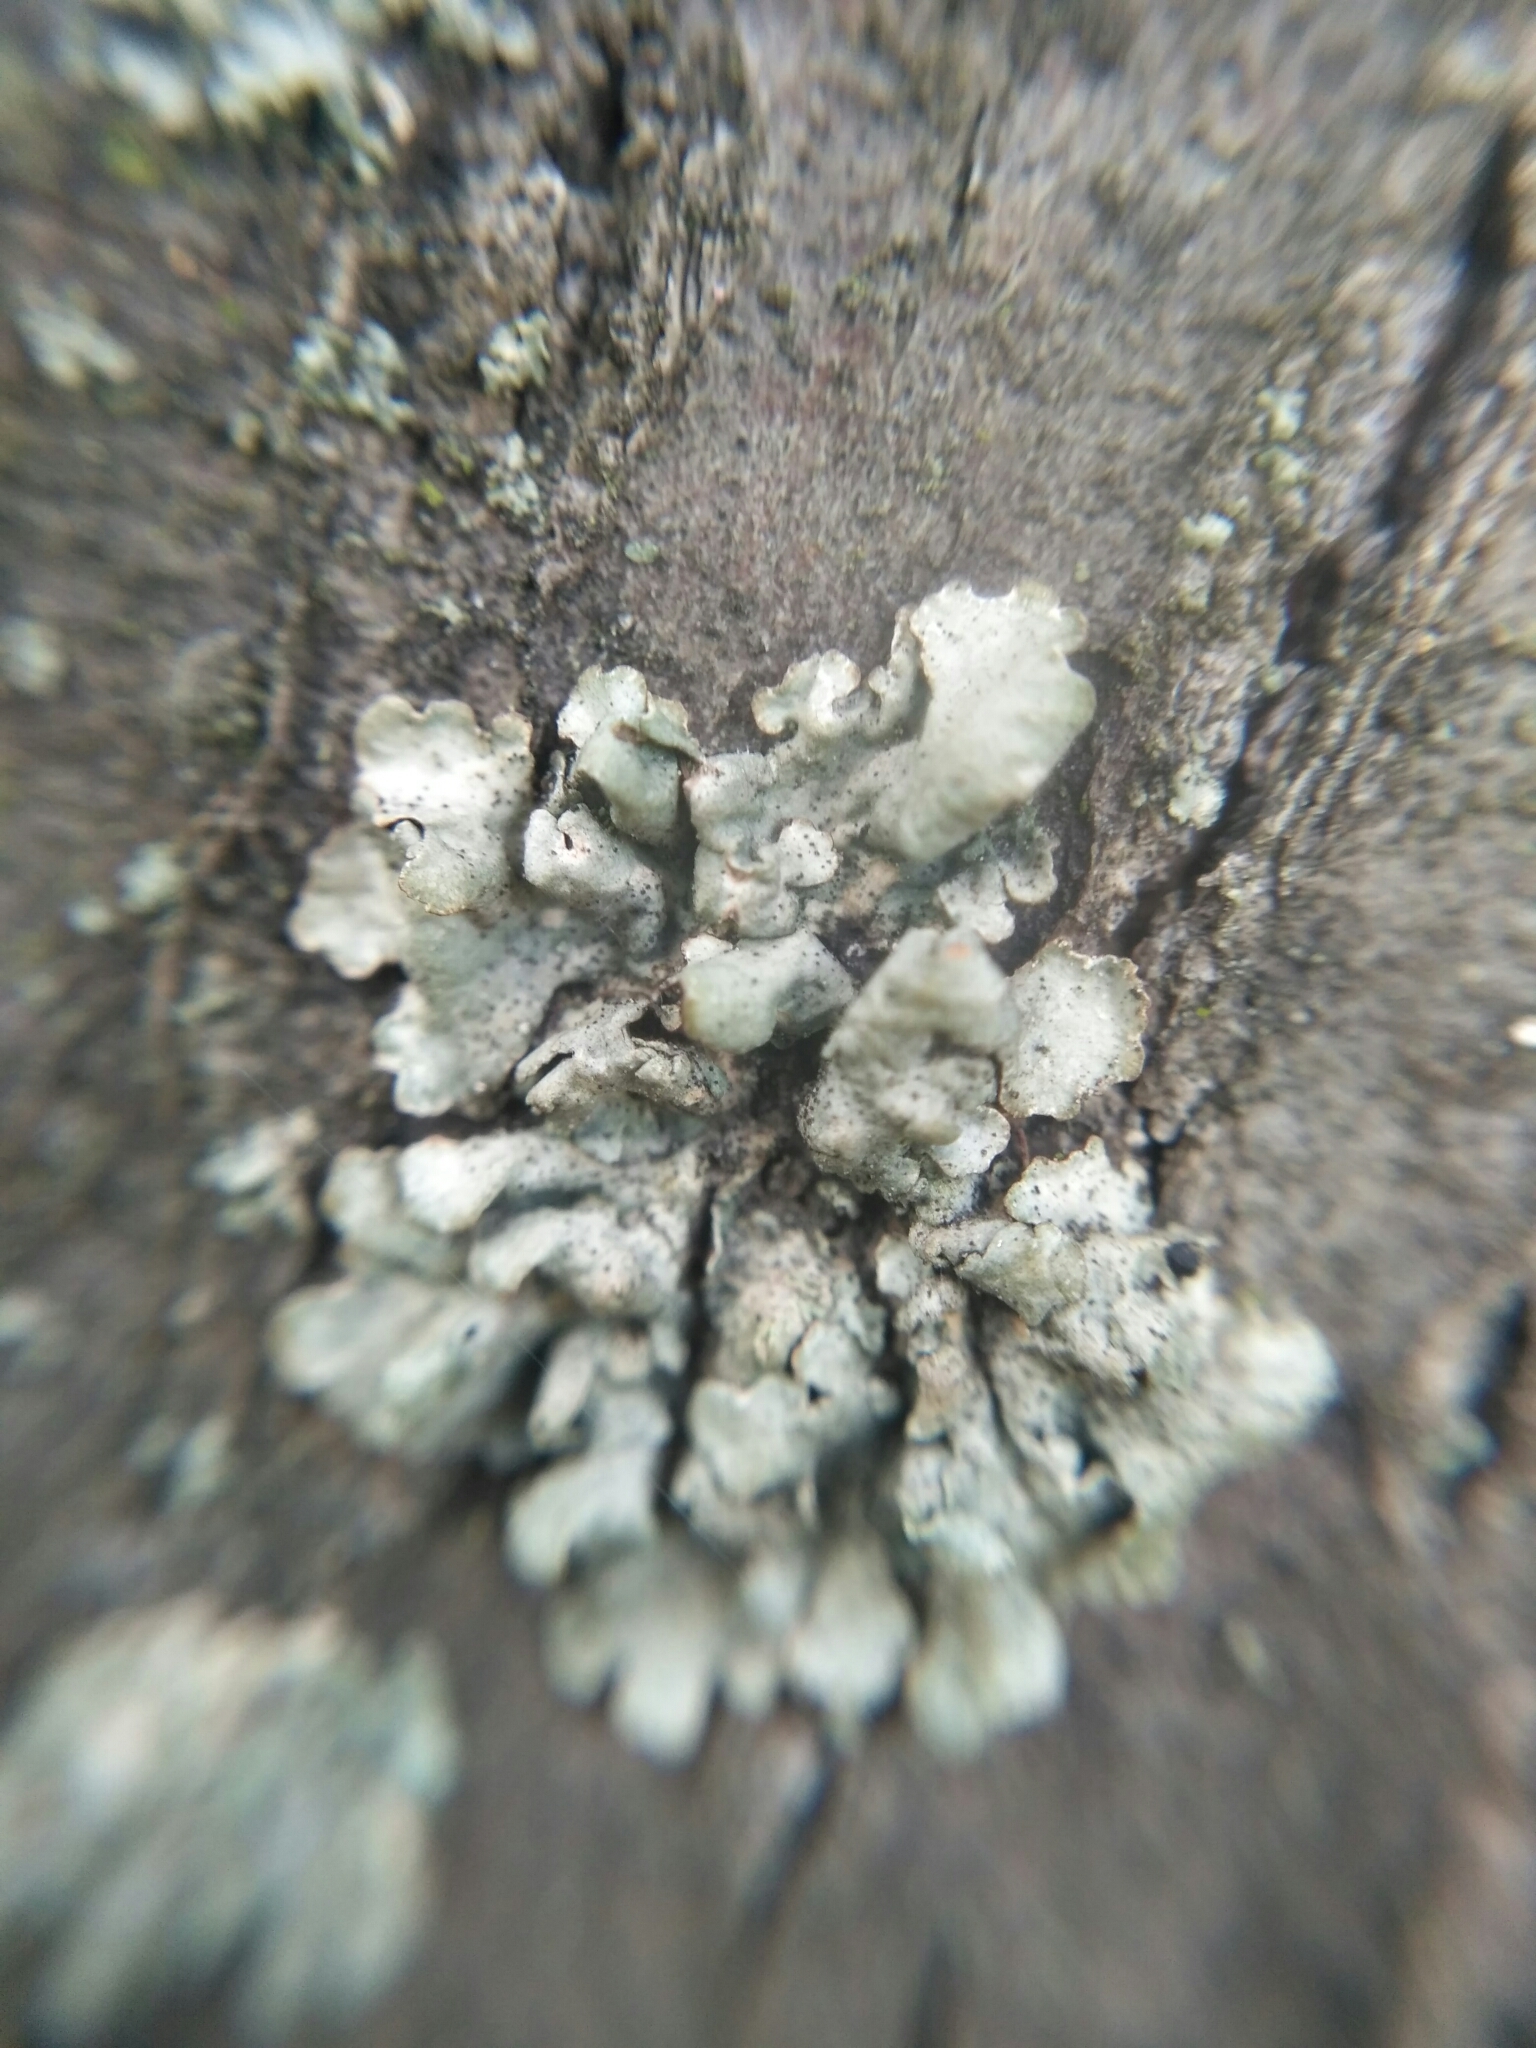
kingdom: Fungi
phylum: Ascomycota
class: Lecanoromycetes
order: Lecanorales
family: Parmeliaceae
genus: Parmelia
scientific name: Parmelia sulcata
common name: Netted shield lichen
